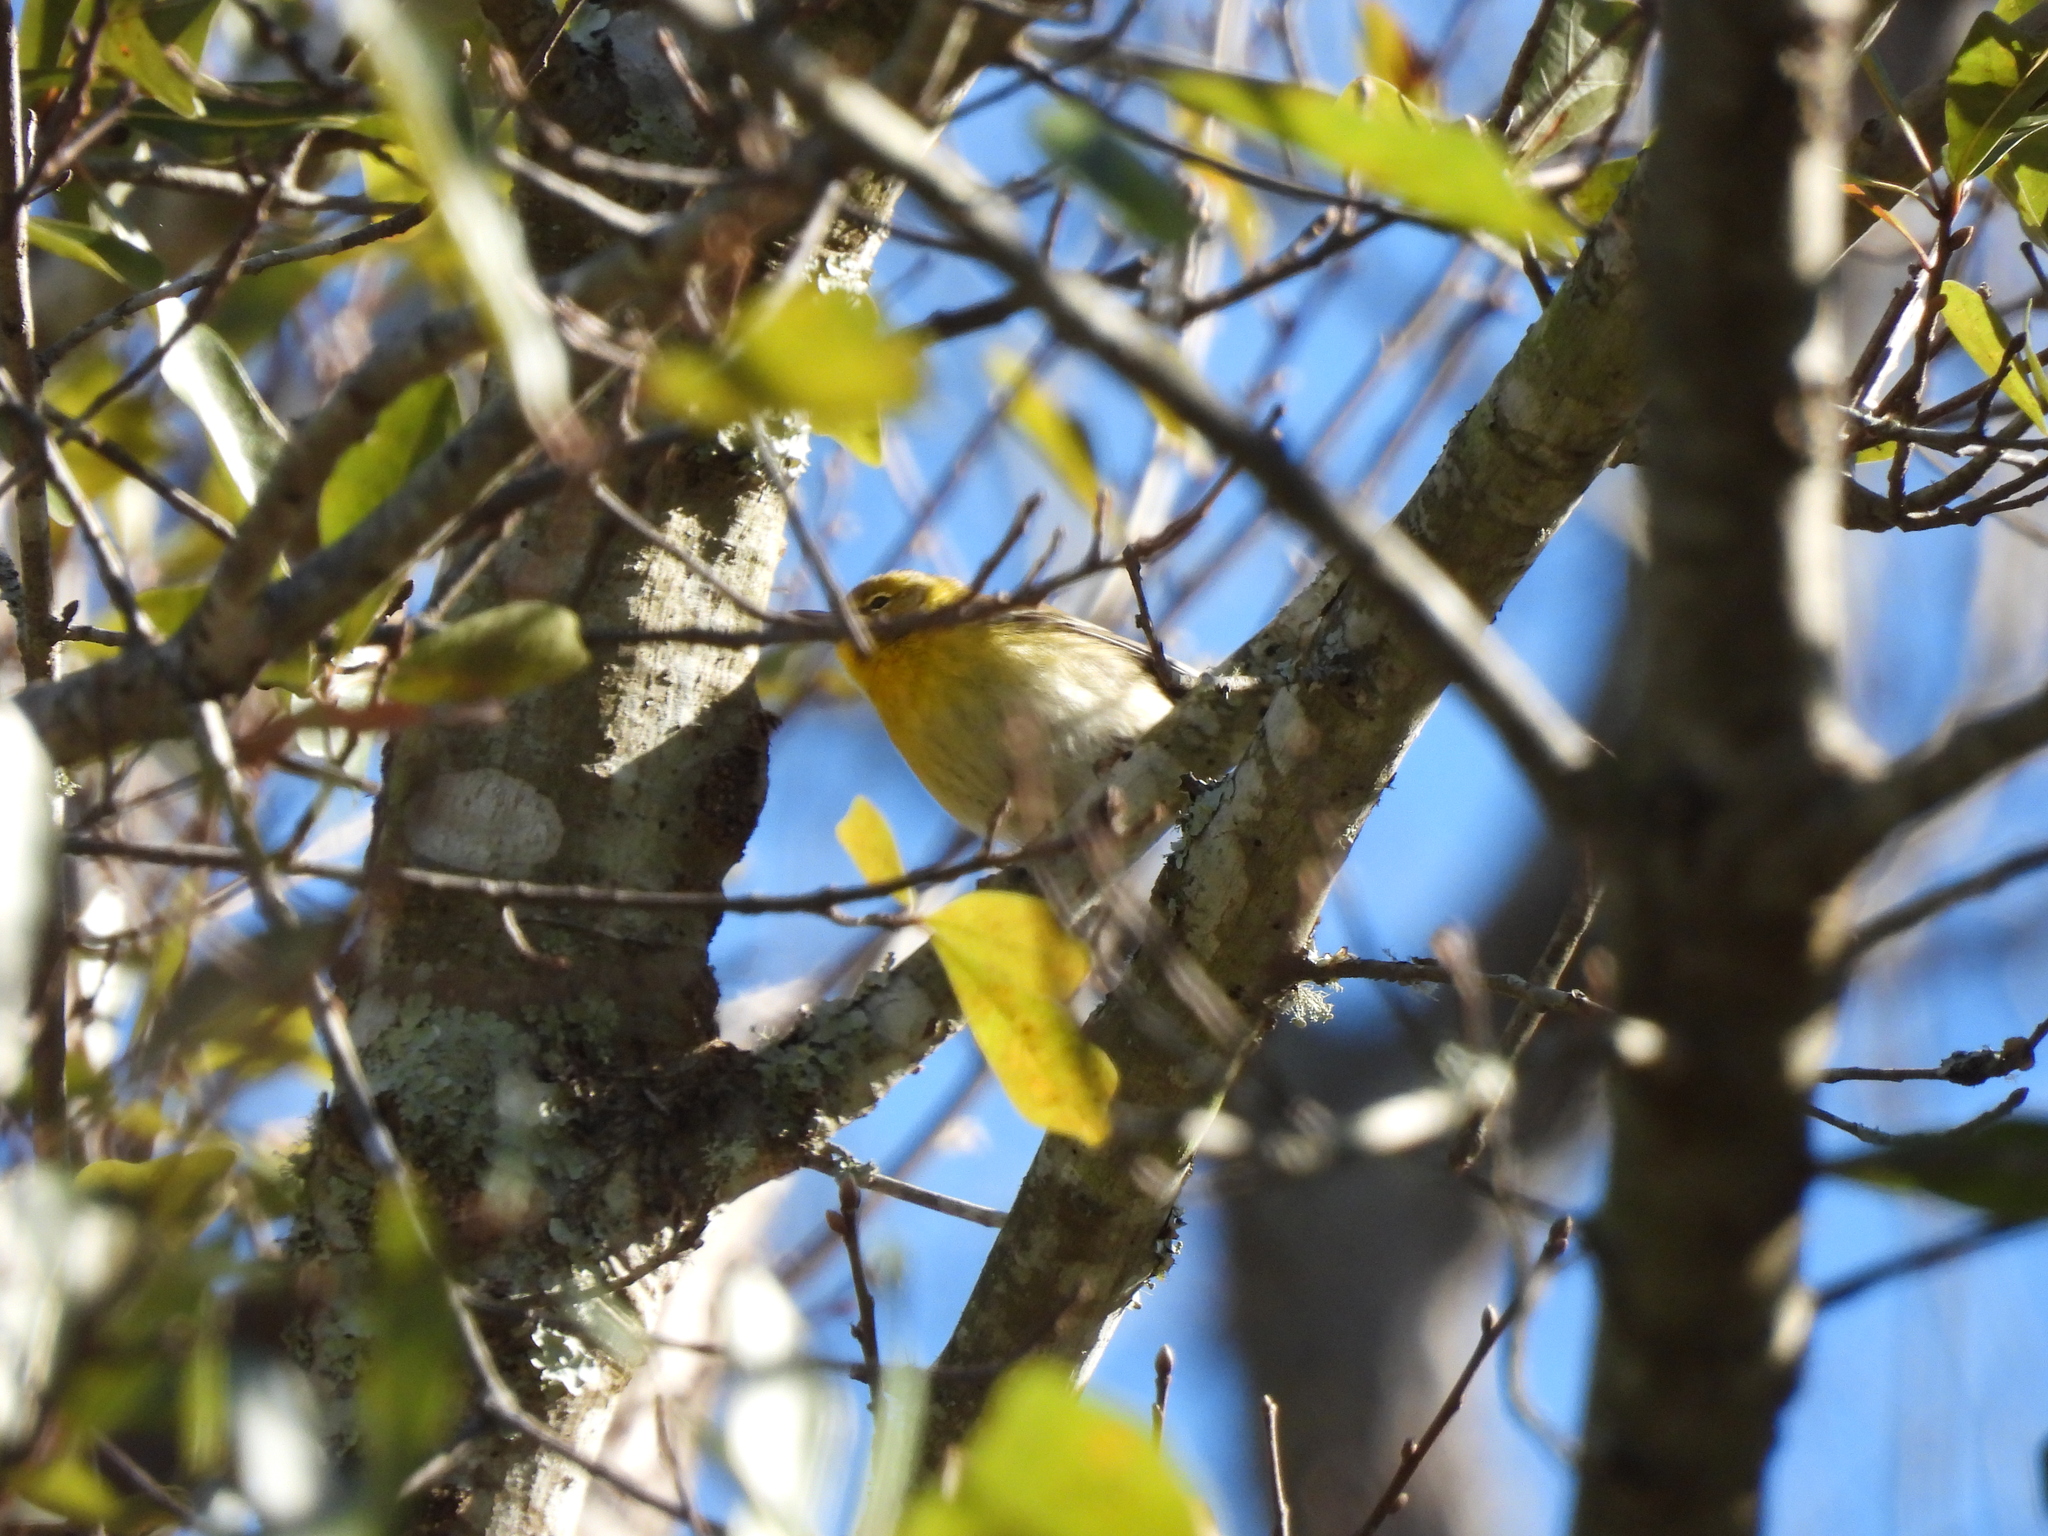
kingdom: Animalia
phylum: Chordata
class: Aves
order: Passeriformes
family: Parulidae
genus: Setophaga
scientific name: Setophaga pinus
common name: Pine warbler
